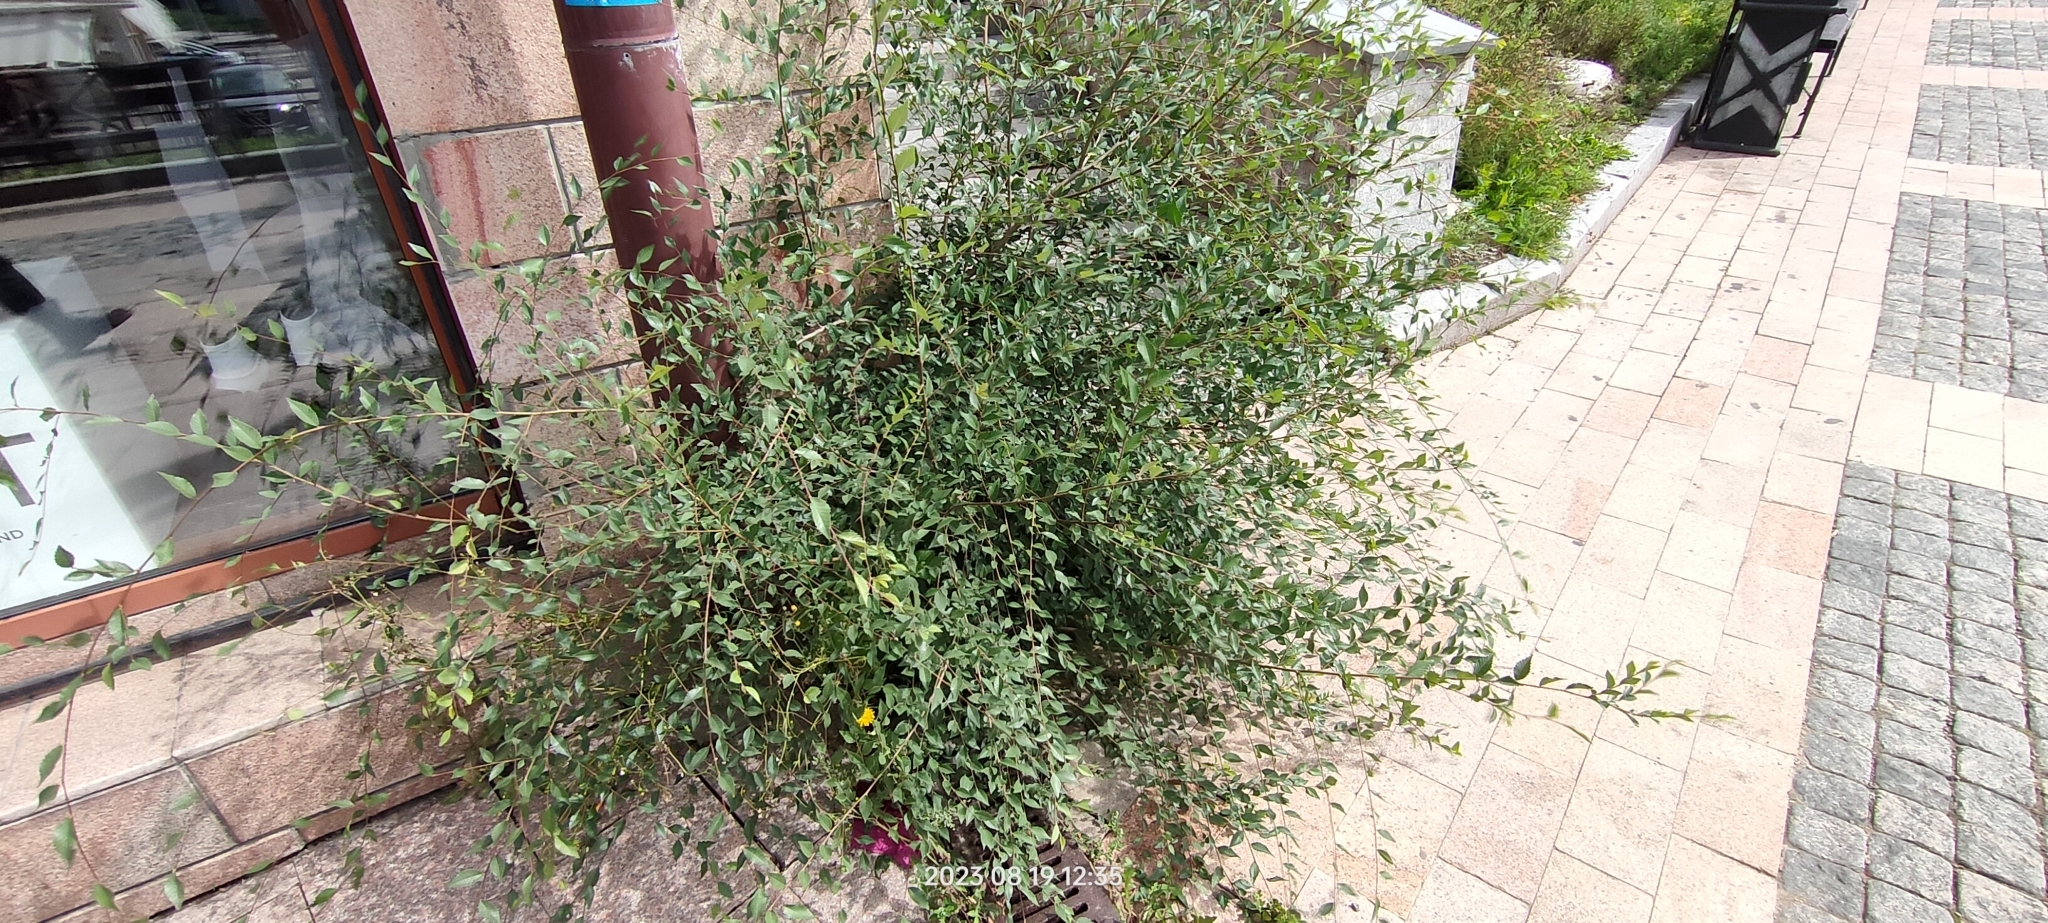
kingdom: Plantae
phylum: Tracheophyta
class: Magnoliopsida
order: Rosales
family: Ulmaceae
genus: Ulmus
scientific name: Ulmus pumila
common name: Siberian elm
